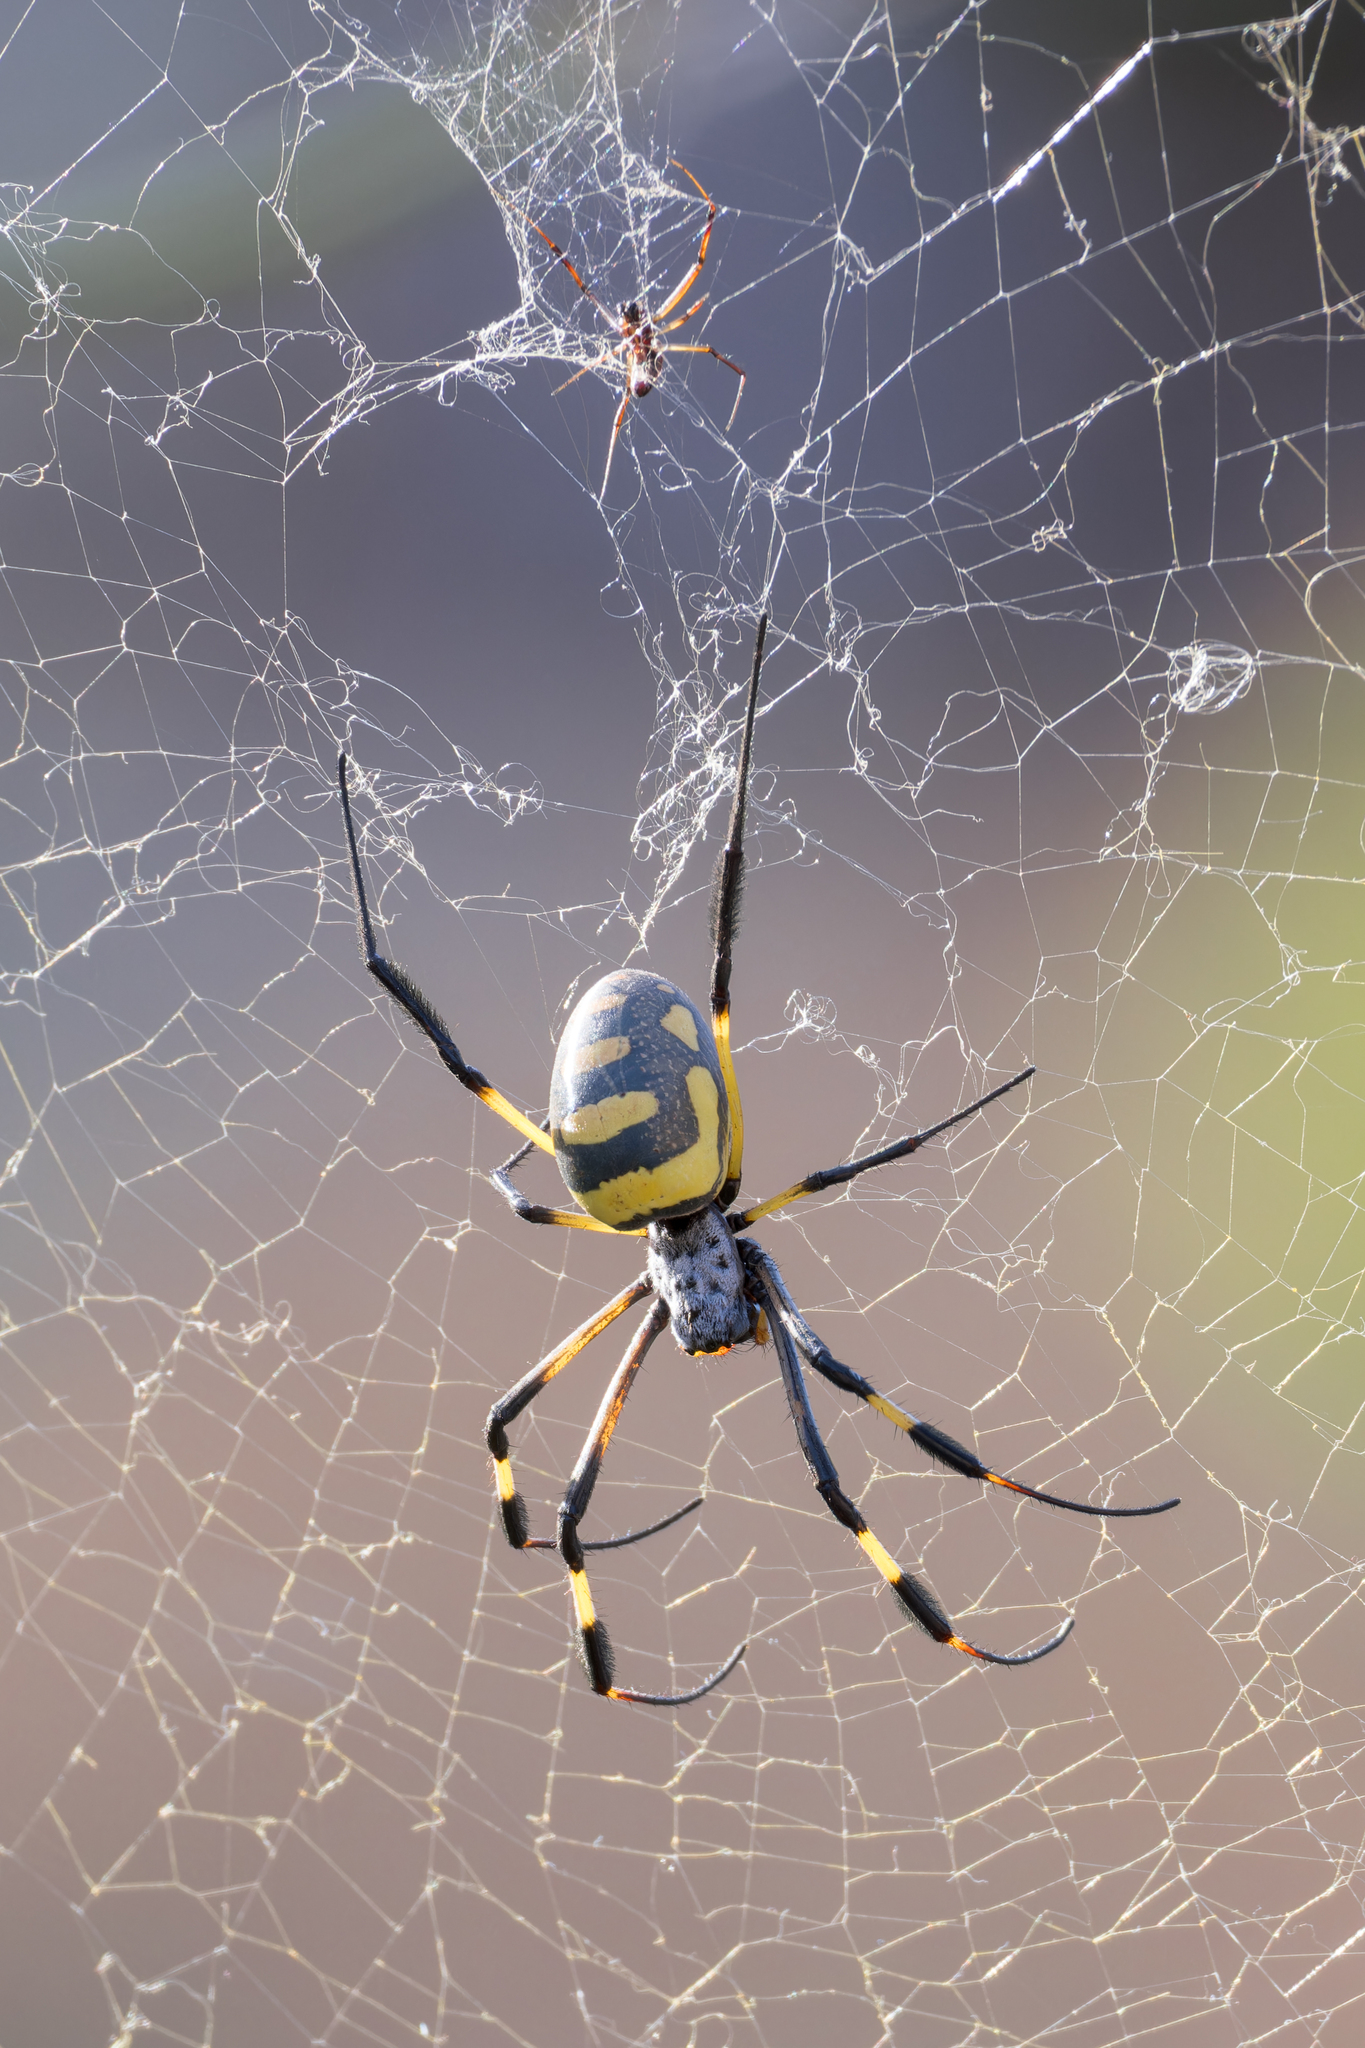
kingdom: Animalia
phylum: Arthropoda
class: Arachnida
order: Araneae
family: Araneidae
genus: Trichonephila
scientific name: Trichonephila senegalensis
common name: Banded golden orb weaver
